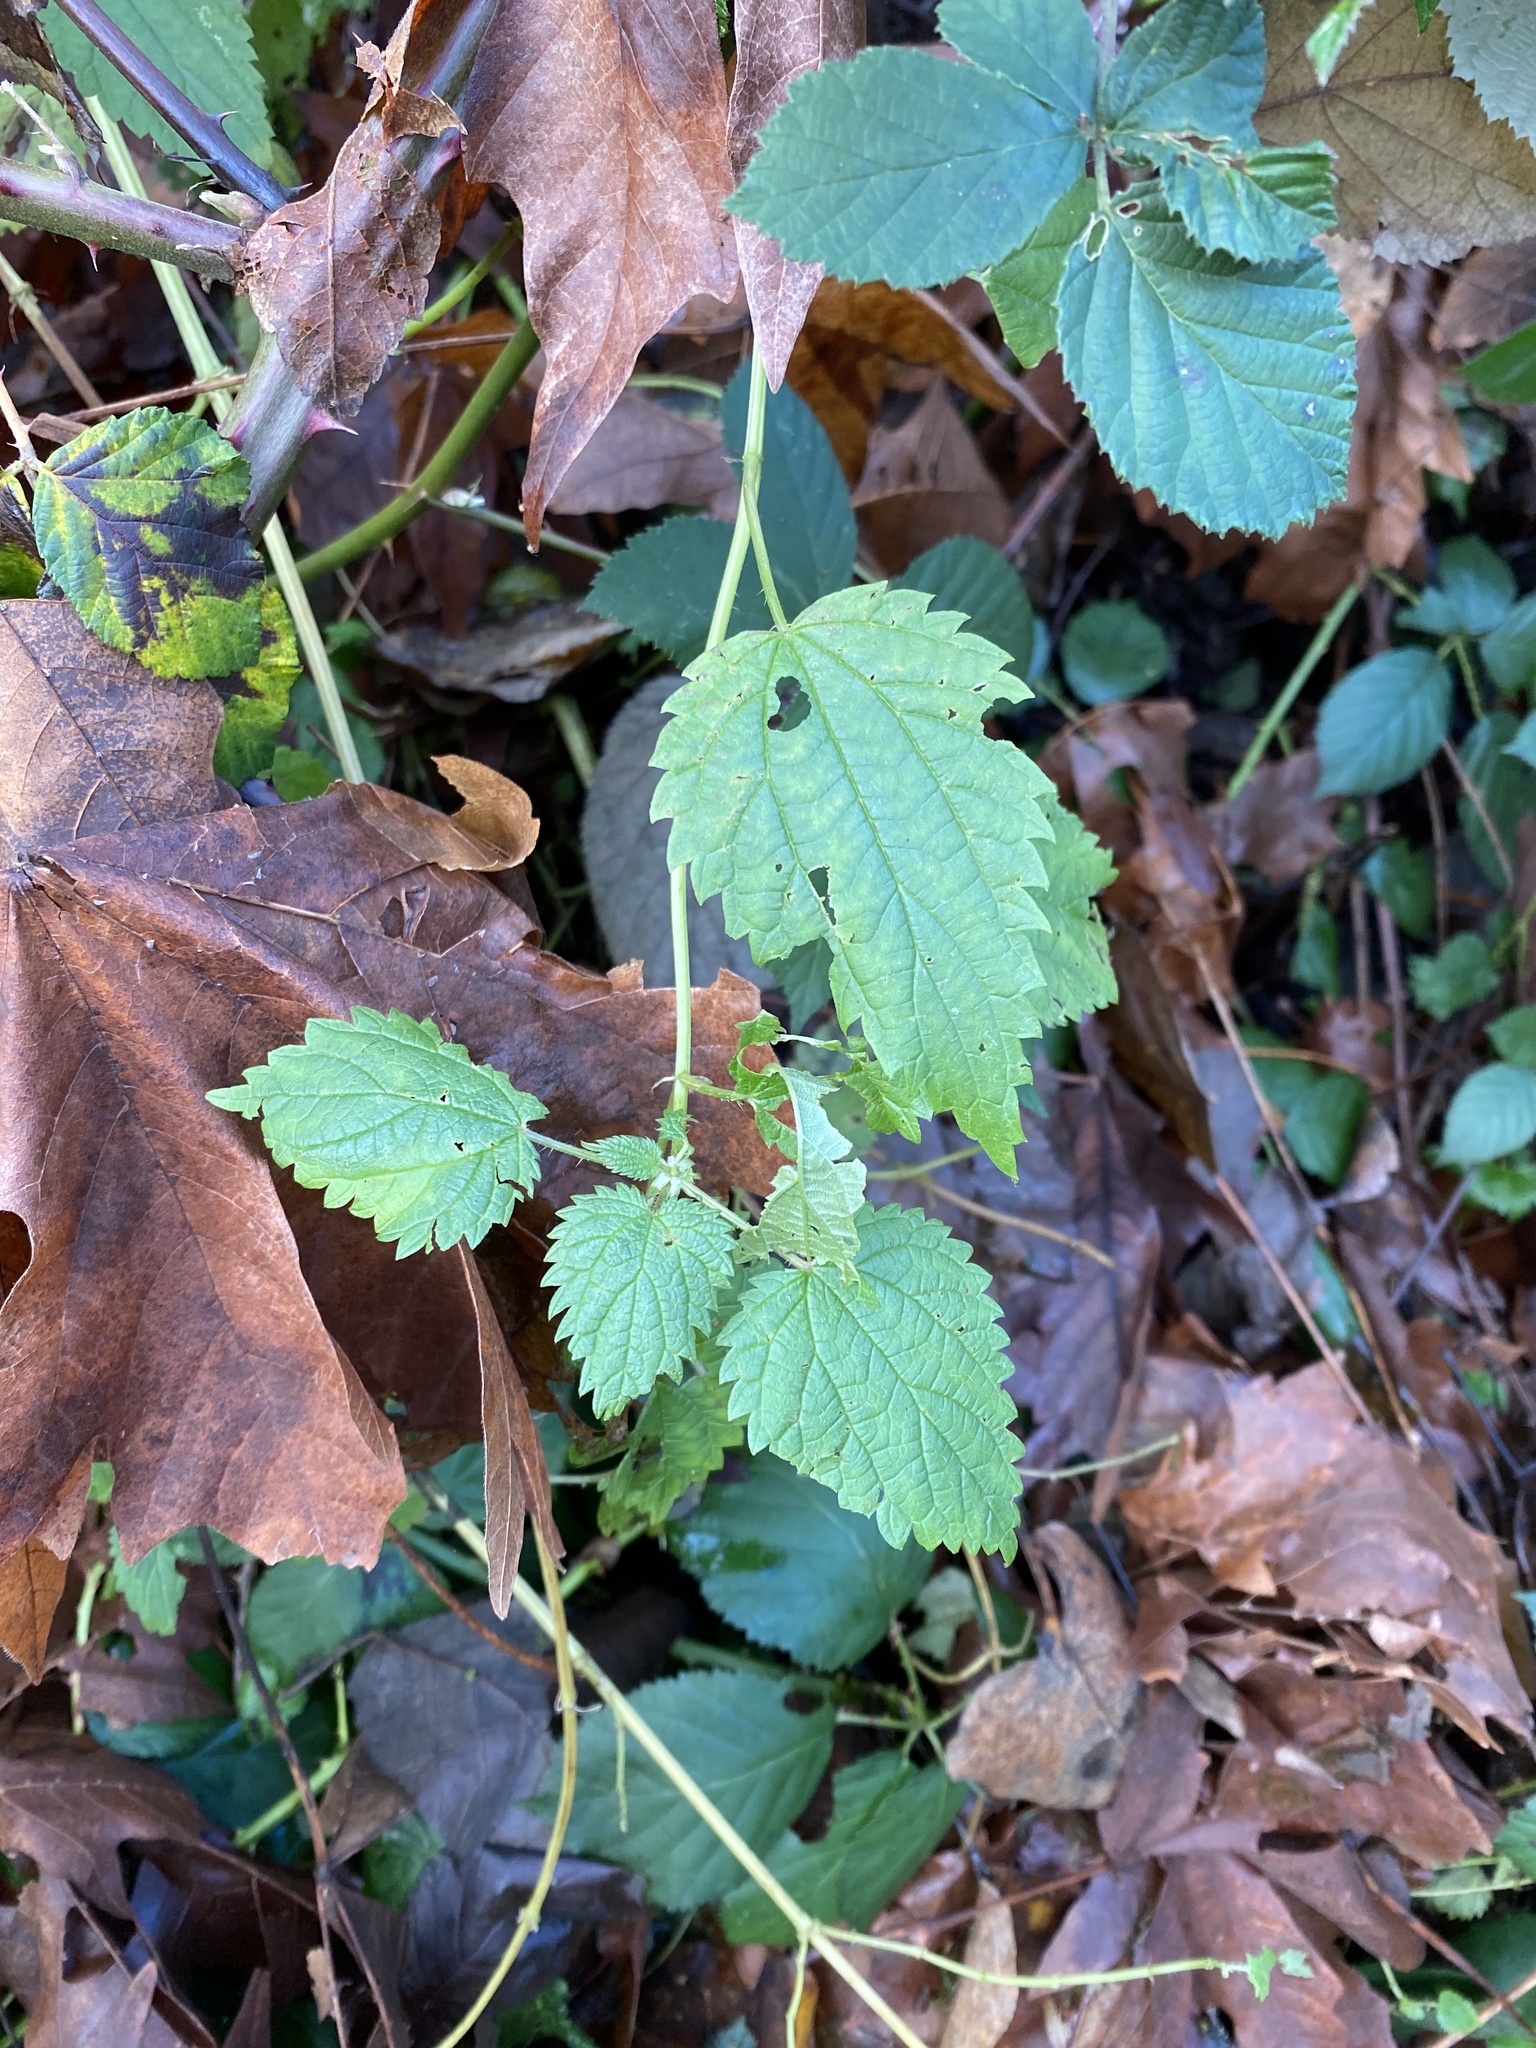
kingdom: Plantae
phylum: Tracheophyta
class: Magnoliopsida
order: Rosales
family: Urticaceae
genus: Urtica
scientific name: Urtica dioica
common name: Common nettle
